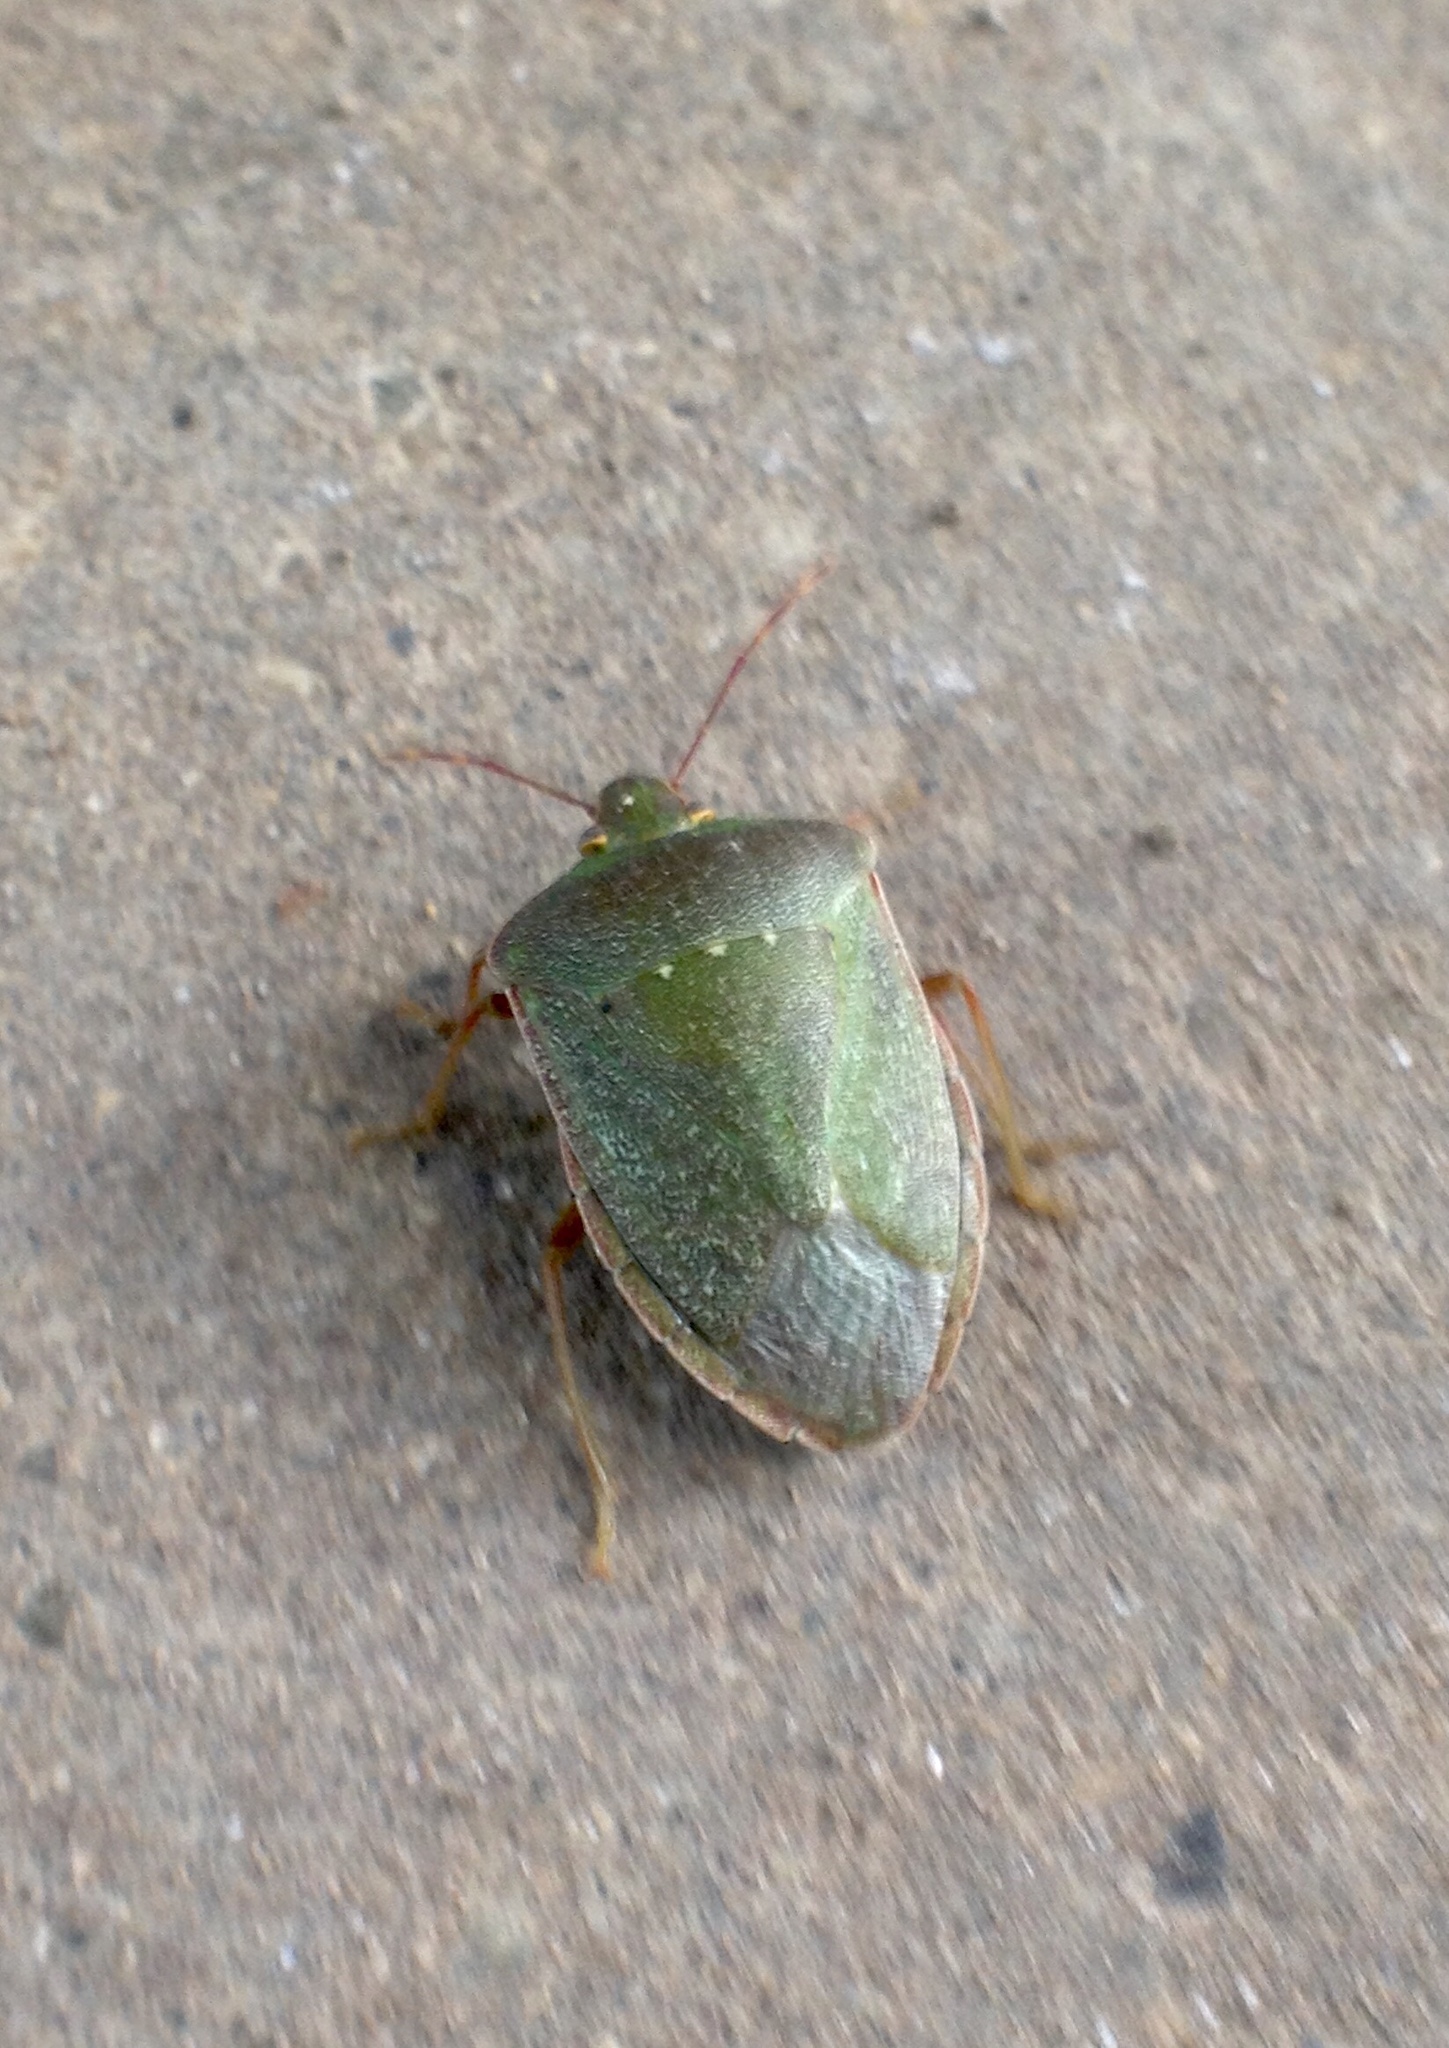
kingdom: Animalia
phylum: Arthropoda
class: Insecta
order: Hemiptera
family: Pentatomidae
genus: Nezara
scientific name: Nezara viridula
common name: Southern green stink bug
